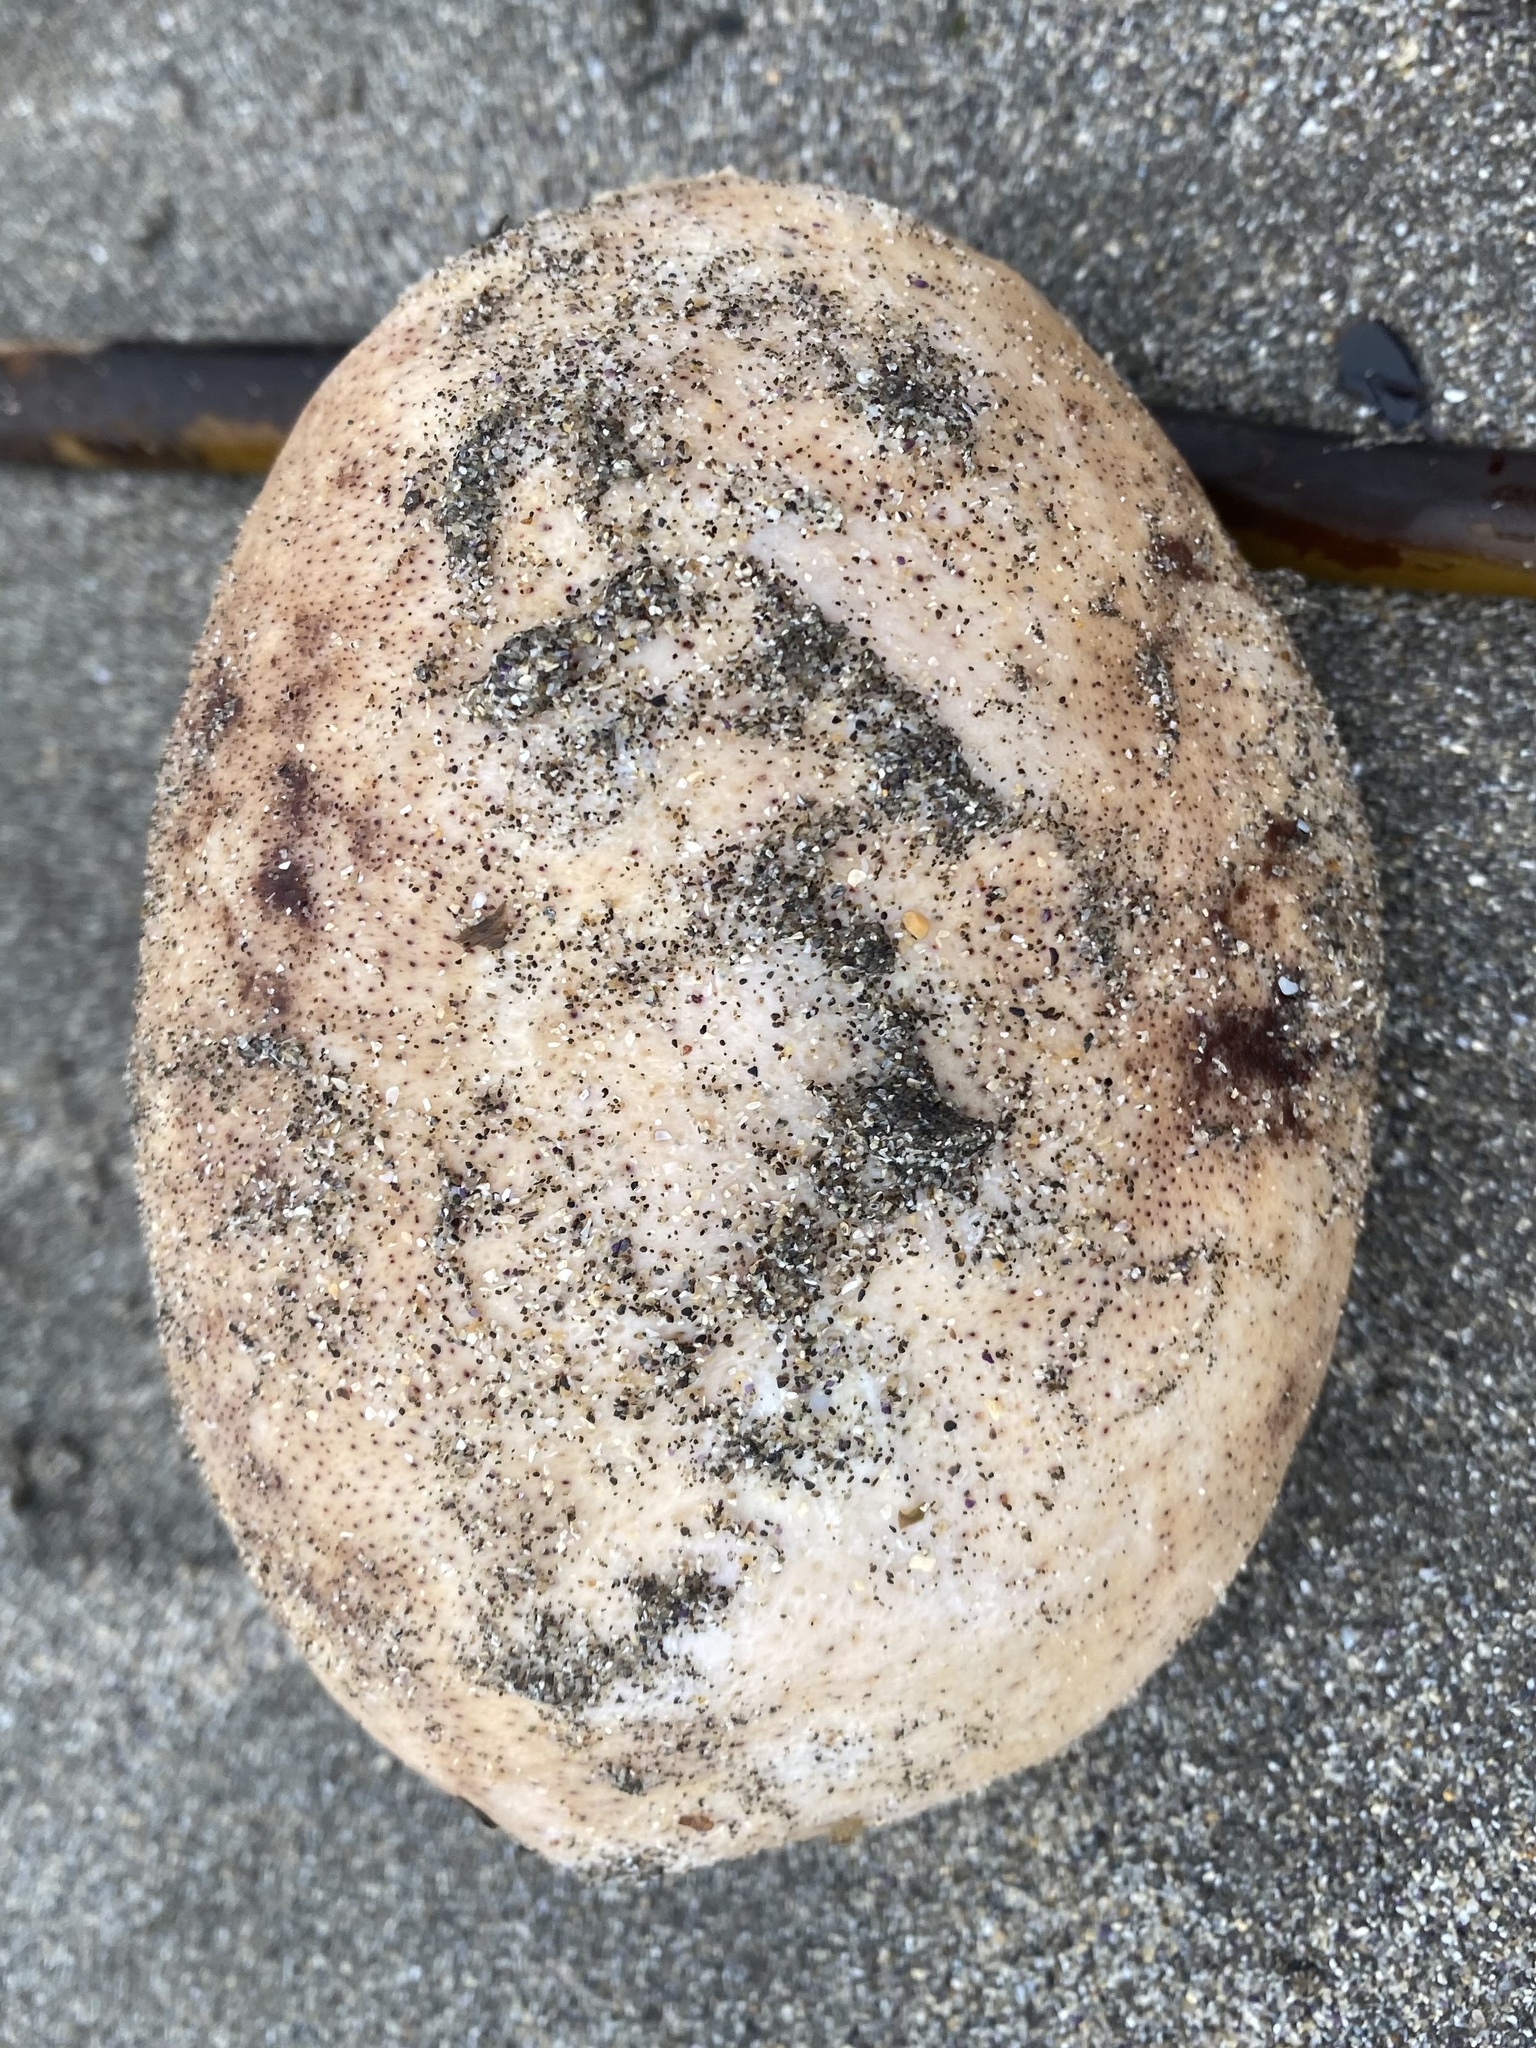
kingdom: Animalia
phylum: Mollusca
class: Polyplacophora
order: Chitonida
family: Acanthochitonidae
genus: Cryptochiton
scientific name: Cryptochiton stelleri
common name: Giant pacific chiton
